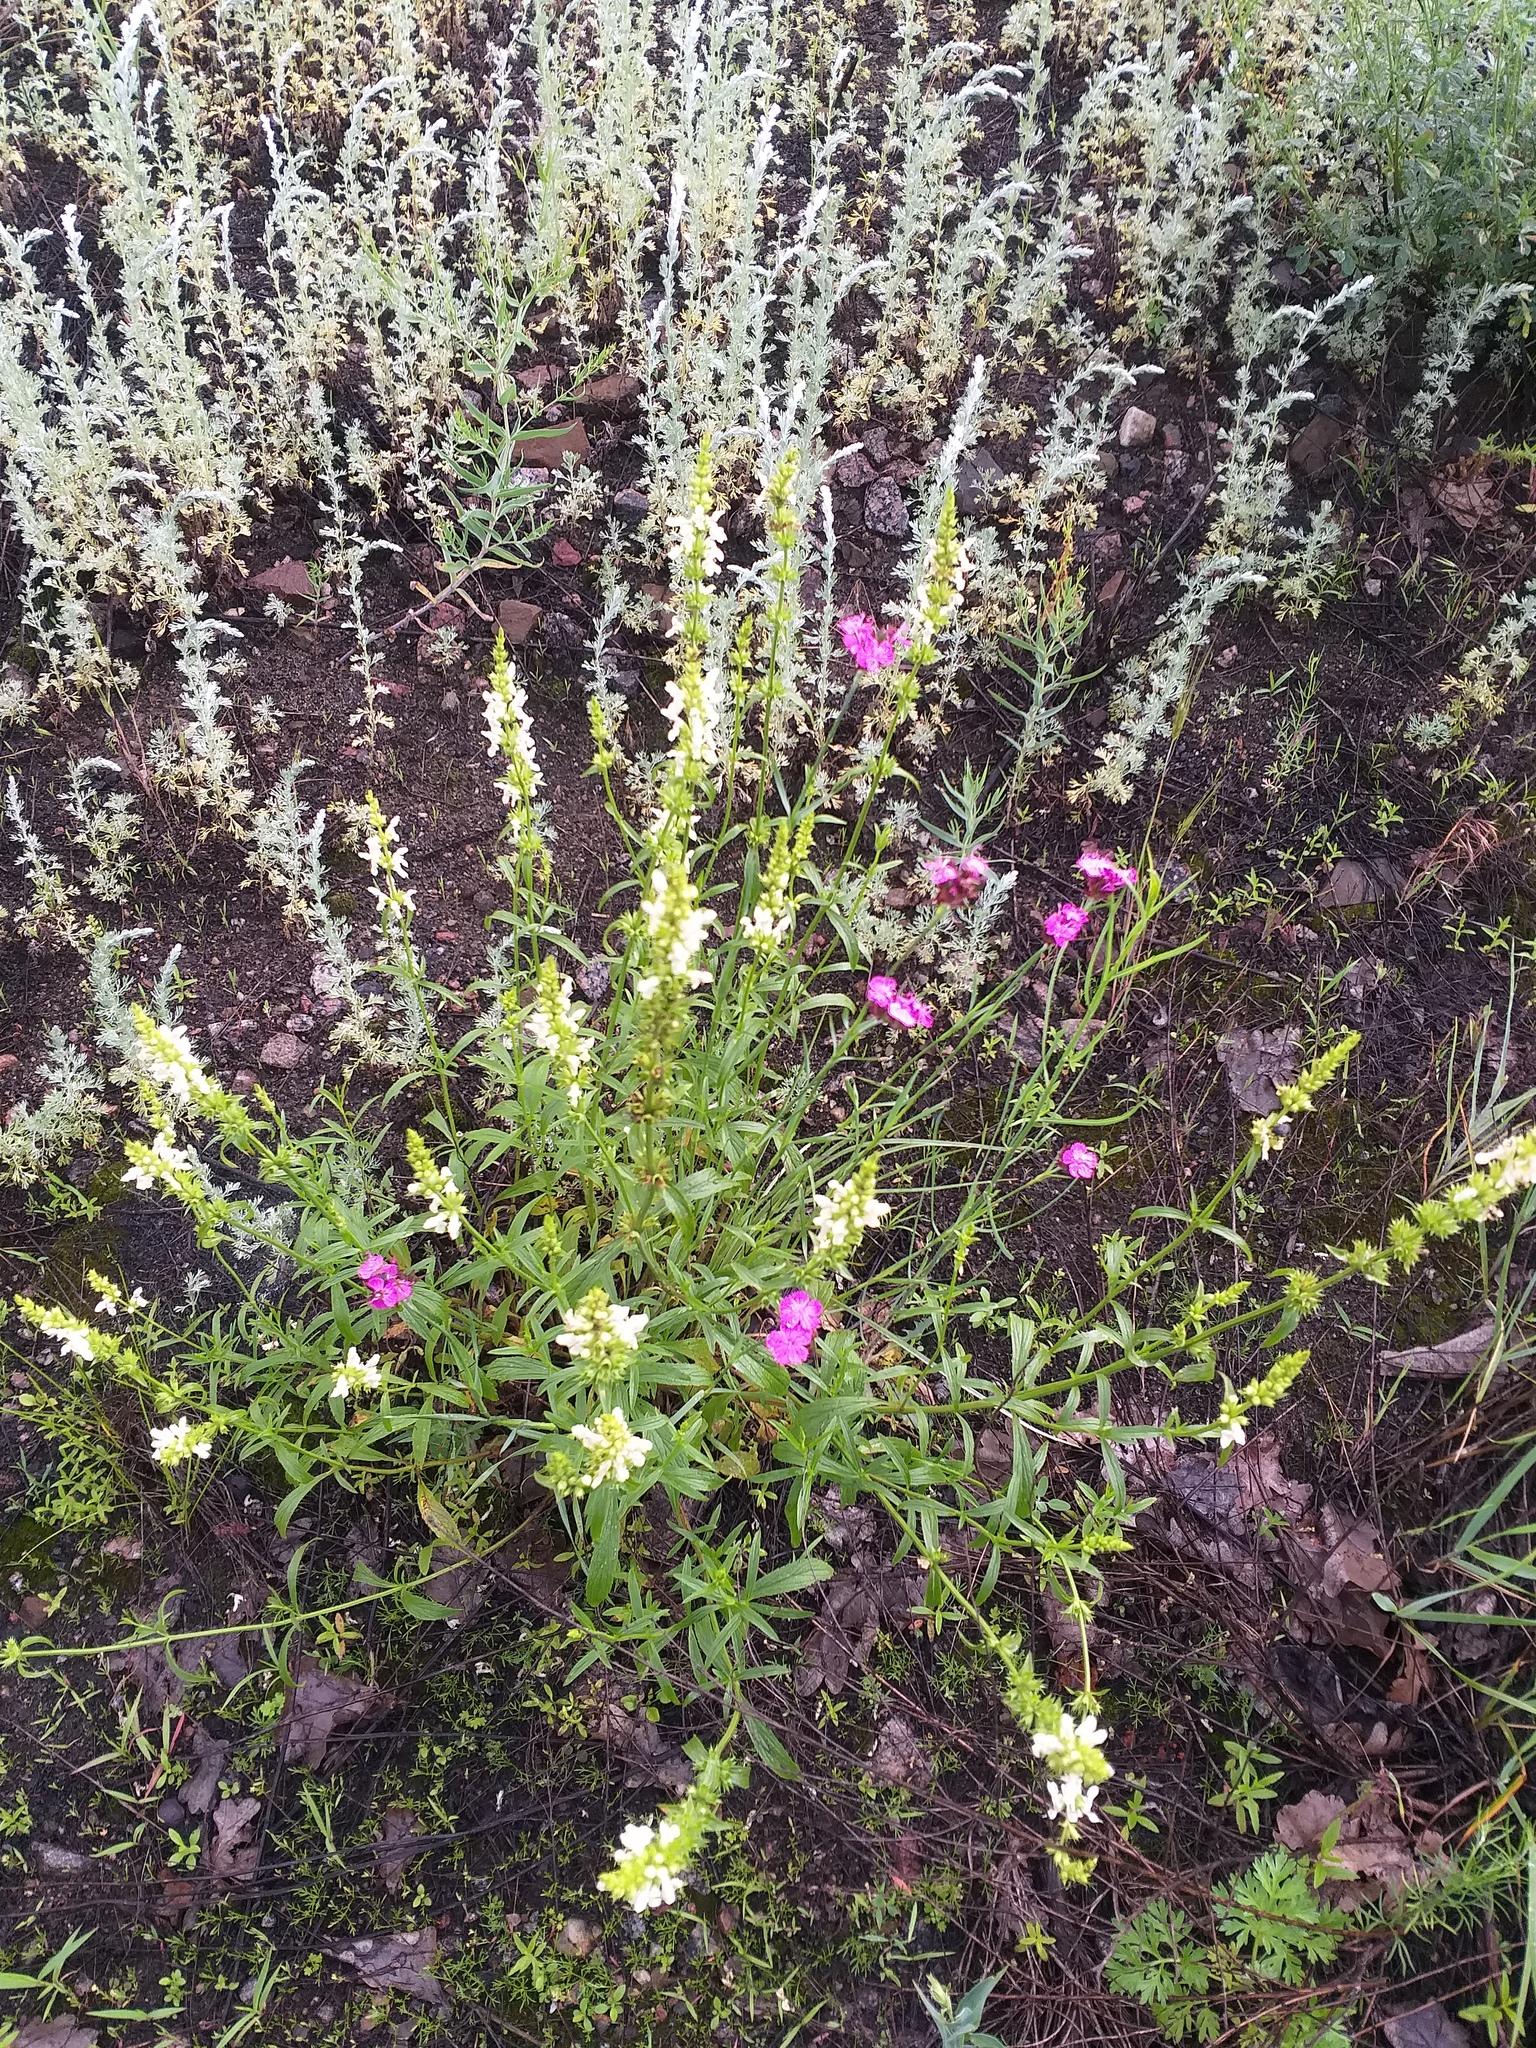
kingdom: Plantae
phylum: Tracheophyta
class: Magnoliopsida
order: Lamiales
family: Lamiaceae
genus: Stachys
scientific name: Stachys recta
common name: Perennial yellow-woundwort
